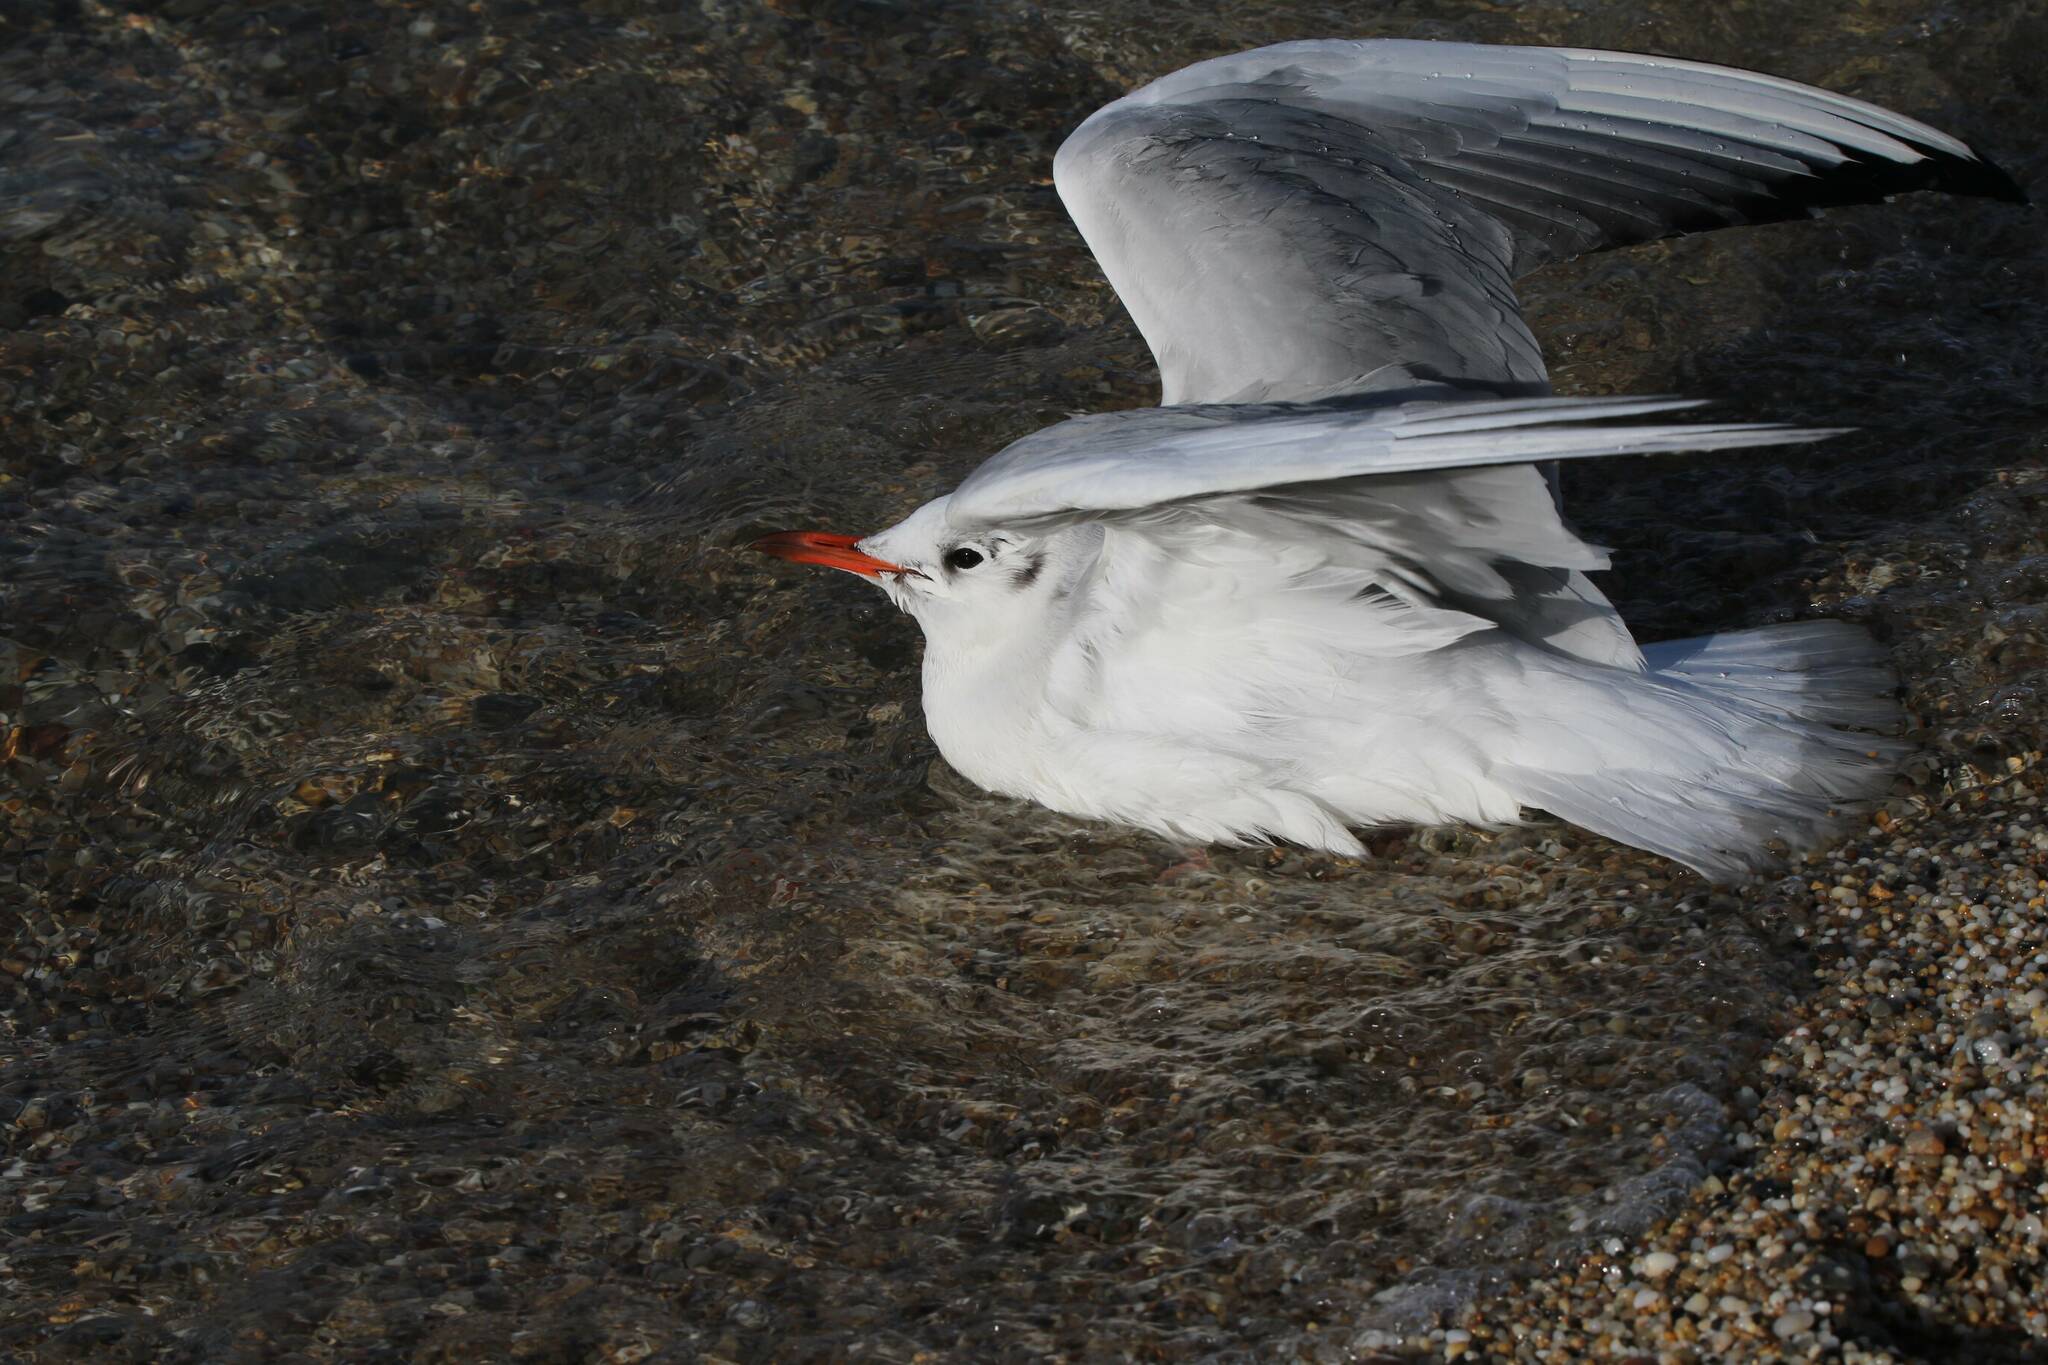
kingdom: Animalia
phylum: Chordata
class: Aves
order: Charadriiformes
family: Laridae
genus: Chroicocephalus
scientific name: Chroicocephalus ridibundus
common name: Black-headed gull
